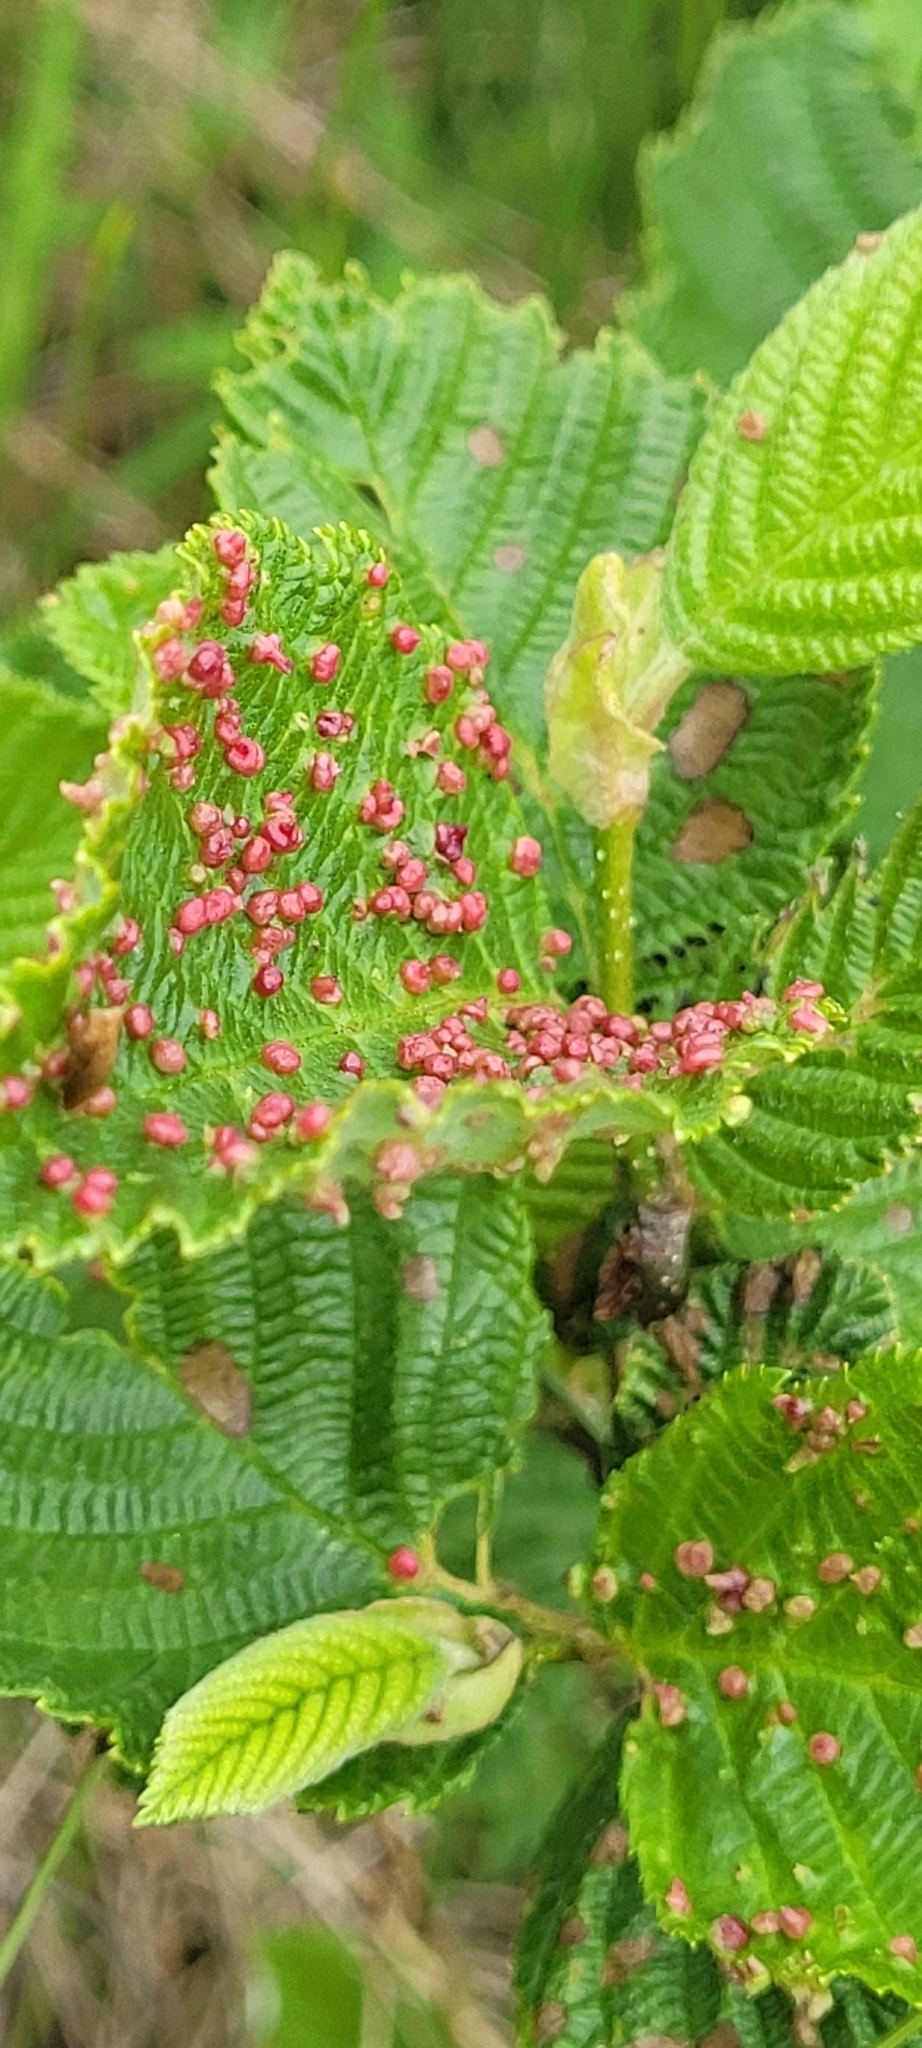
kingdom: Animalia
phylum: Arthropoda
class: Arachnida
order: Trombidiformes
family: Eriophyidae
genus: Eriophyes
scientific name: Eriophyes laevis
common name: Alder leaf gall mite
